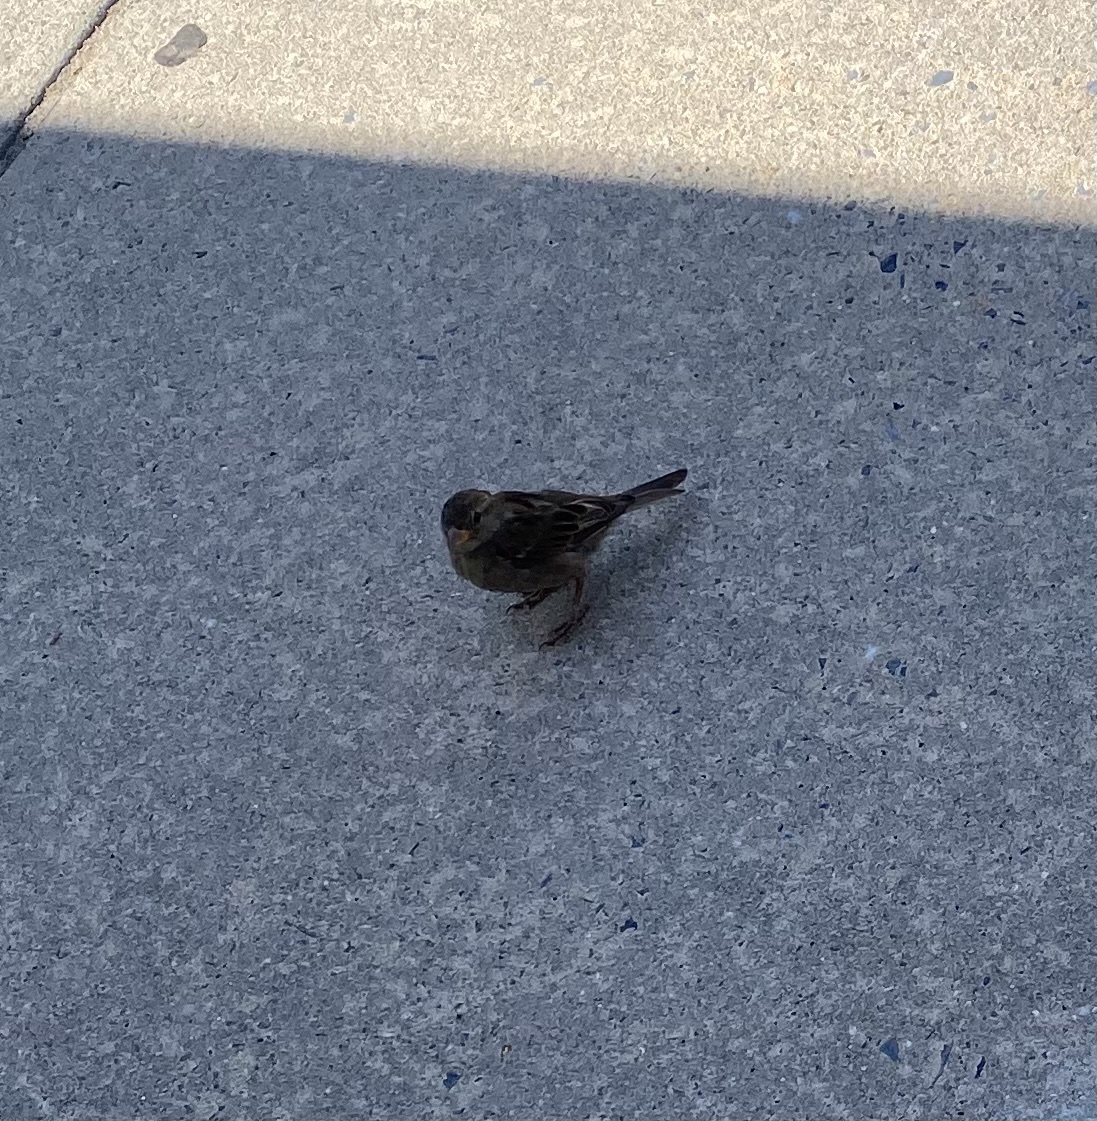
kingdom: Animalia
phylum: Chordata
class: Aves
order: Passeriformes
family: Passeridae
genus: Passer
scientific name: Passer domesticus
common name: House sparrow
